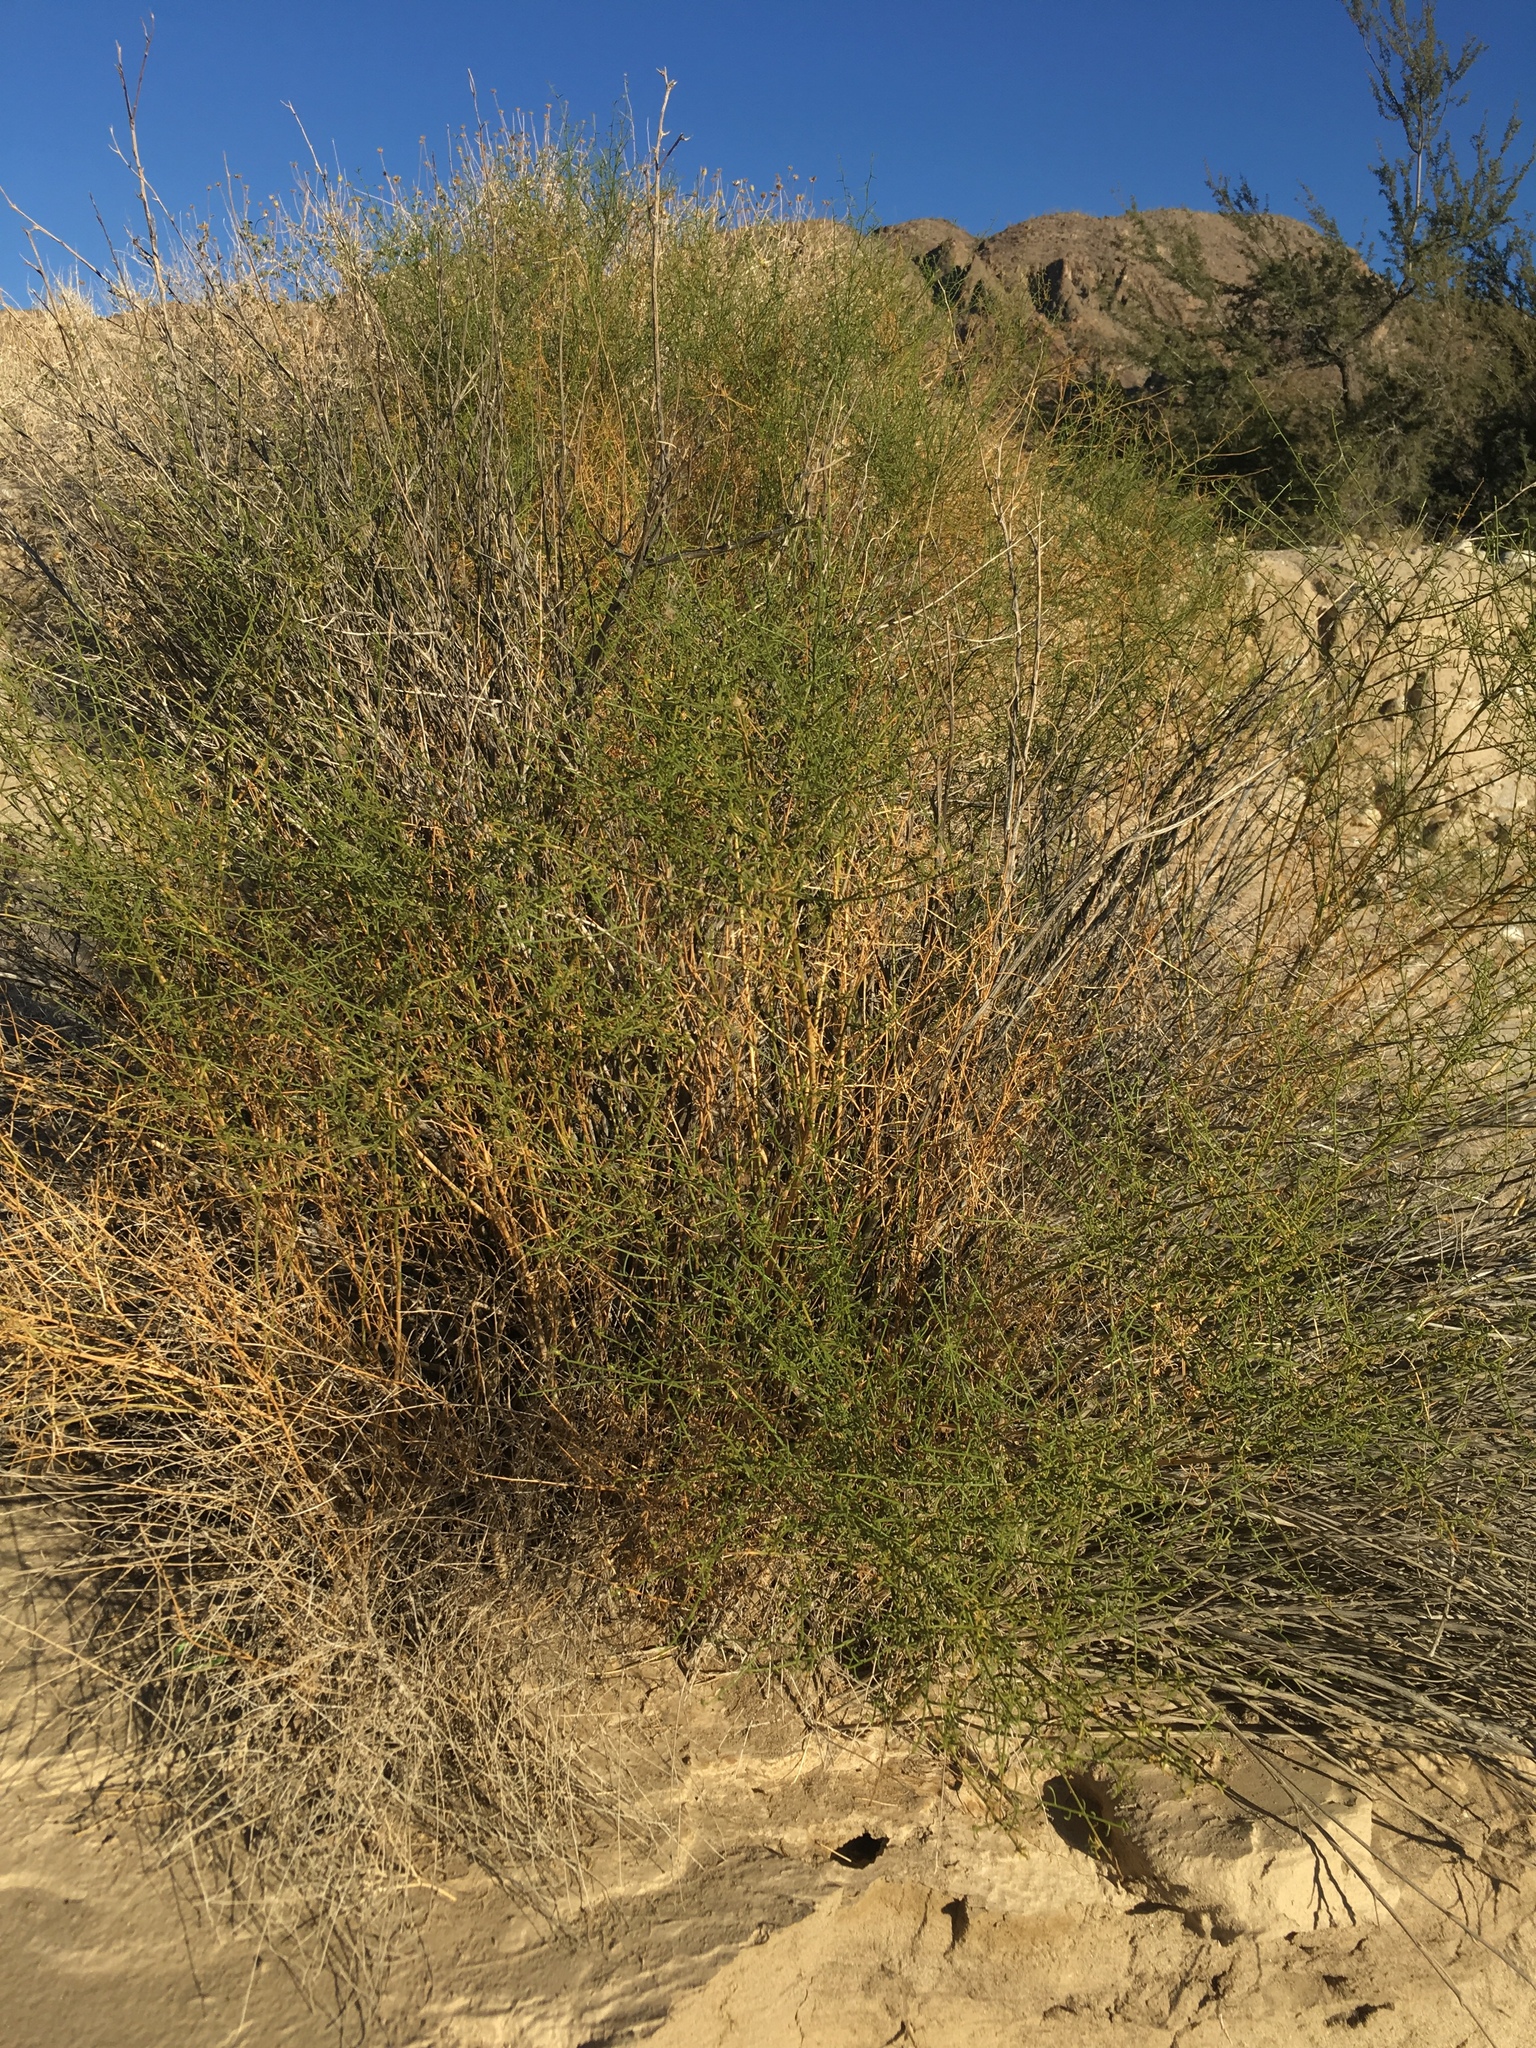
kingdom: Plantae
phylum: Tracheophyta
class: Magnoliopsida
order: Asterales
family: Asteraceae
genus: Ambrosia
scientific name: Ambrosia salsola
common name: Burrobrush
